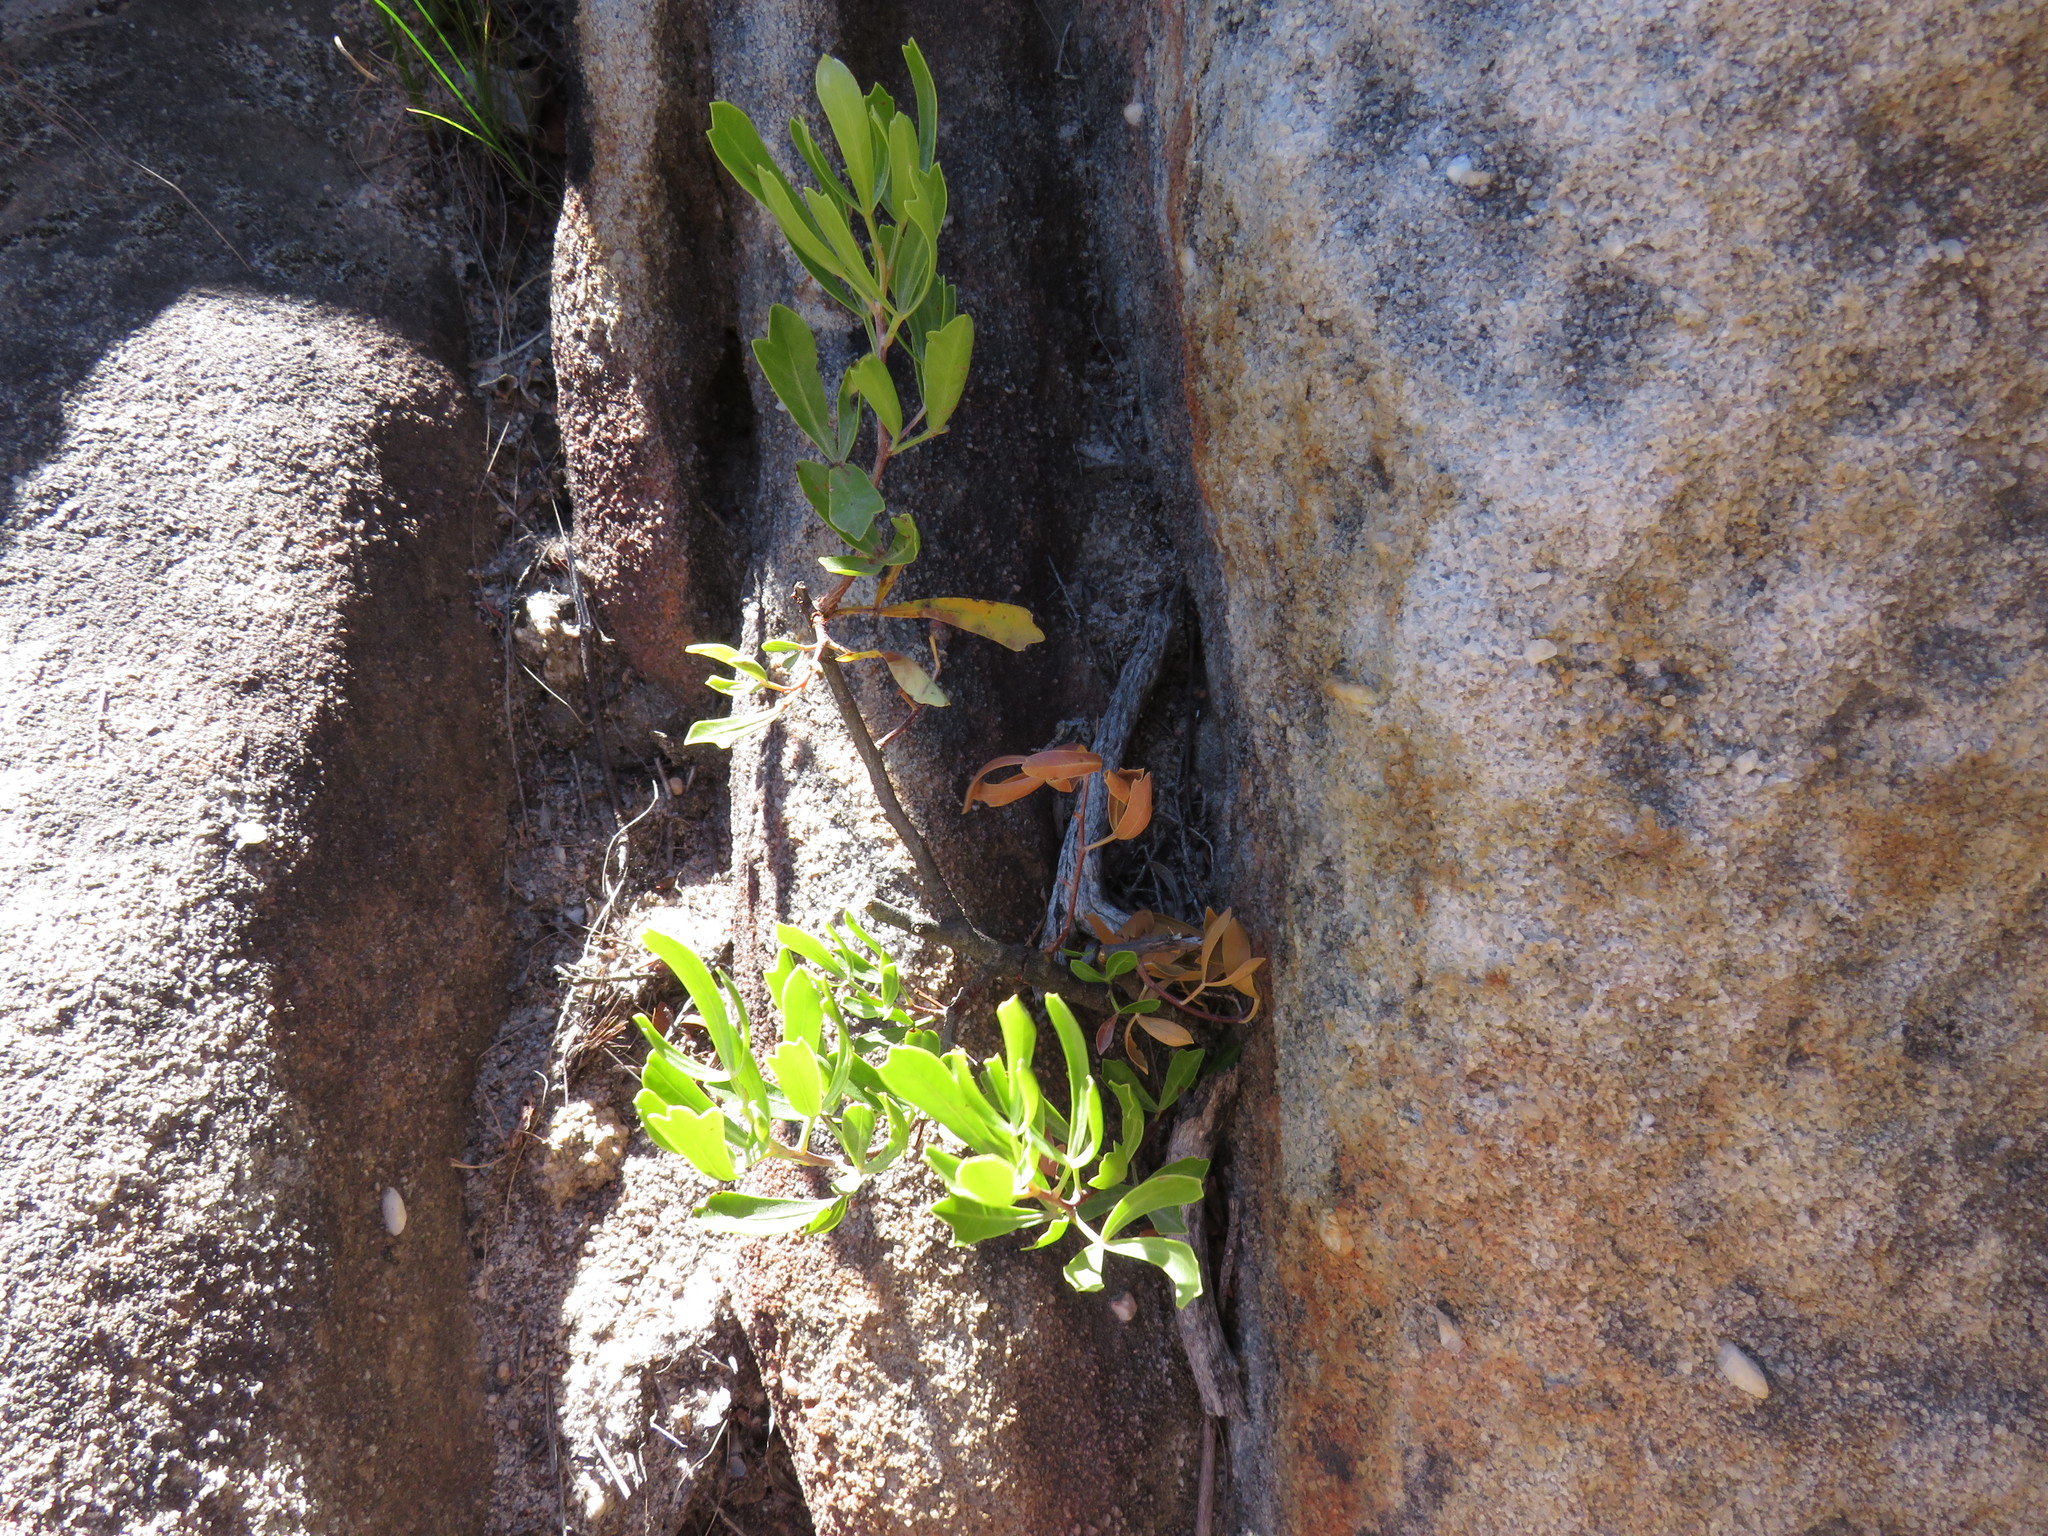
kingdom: Plantae
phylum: Tracheophyta
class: Magnoliopsida
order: Sapindales
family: Anacardiaceae
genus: Searsia
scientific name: Searsia rimosa
